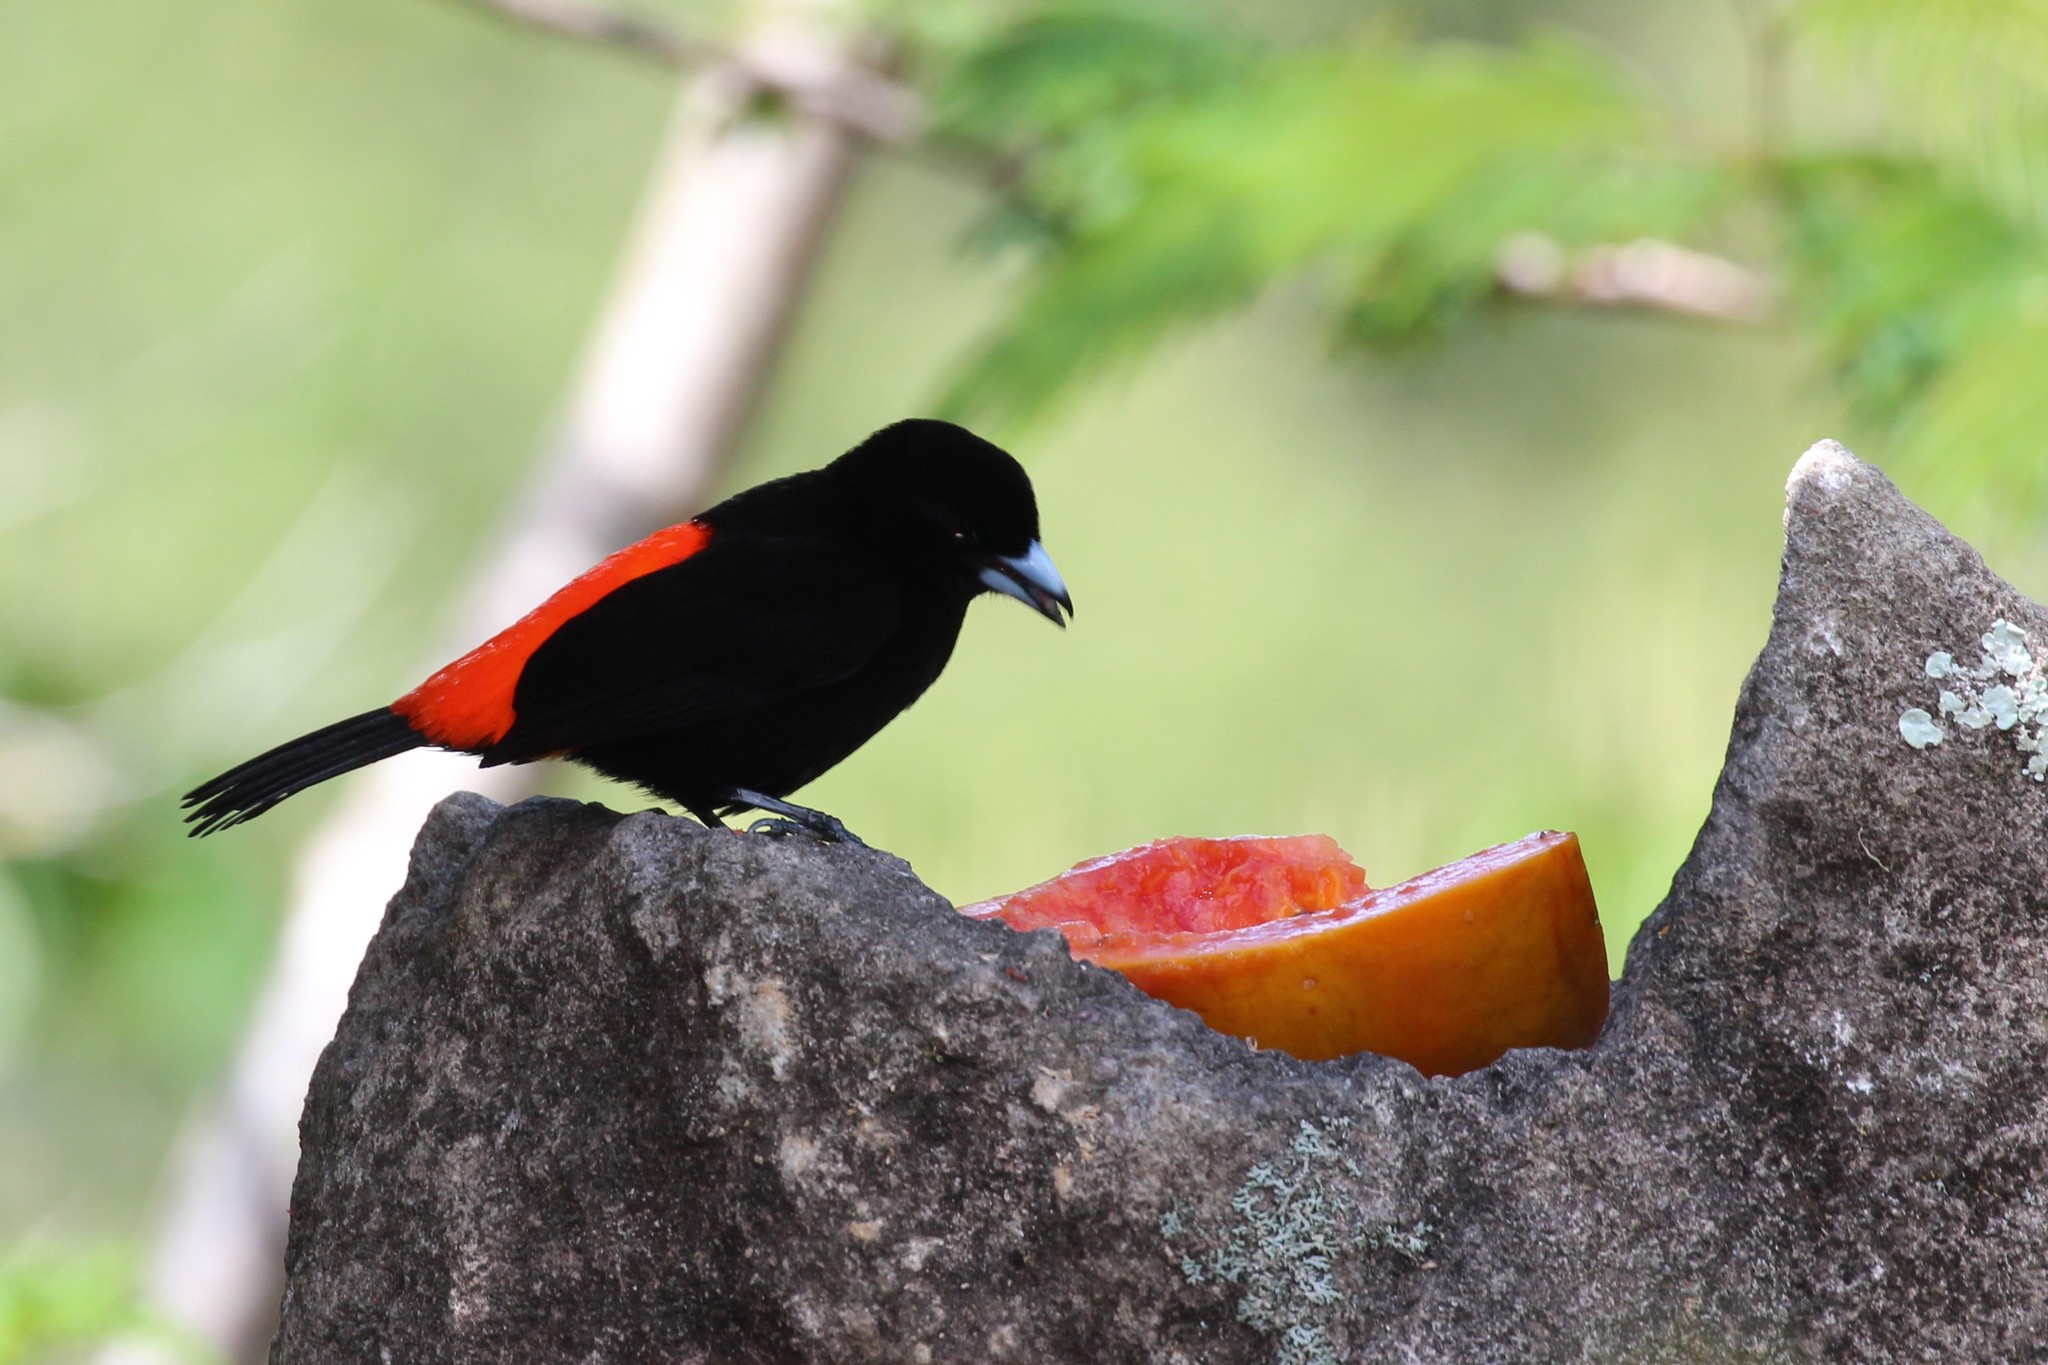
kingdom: Animalia
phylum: Chordata
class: Aves
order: Passeriformes
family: Thraupidae
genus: Ramphocelus
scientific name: Ramphocelus passerinii
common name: Passerini's tanager
